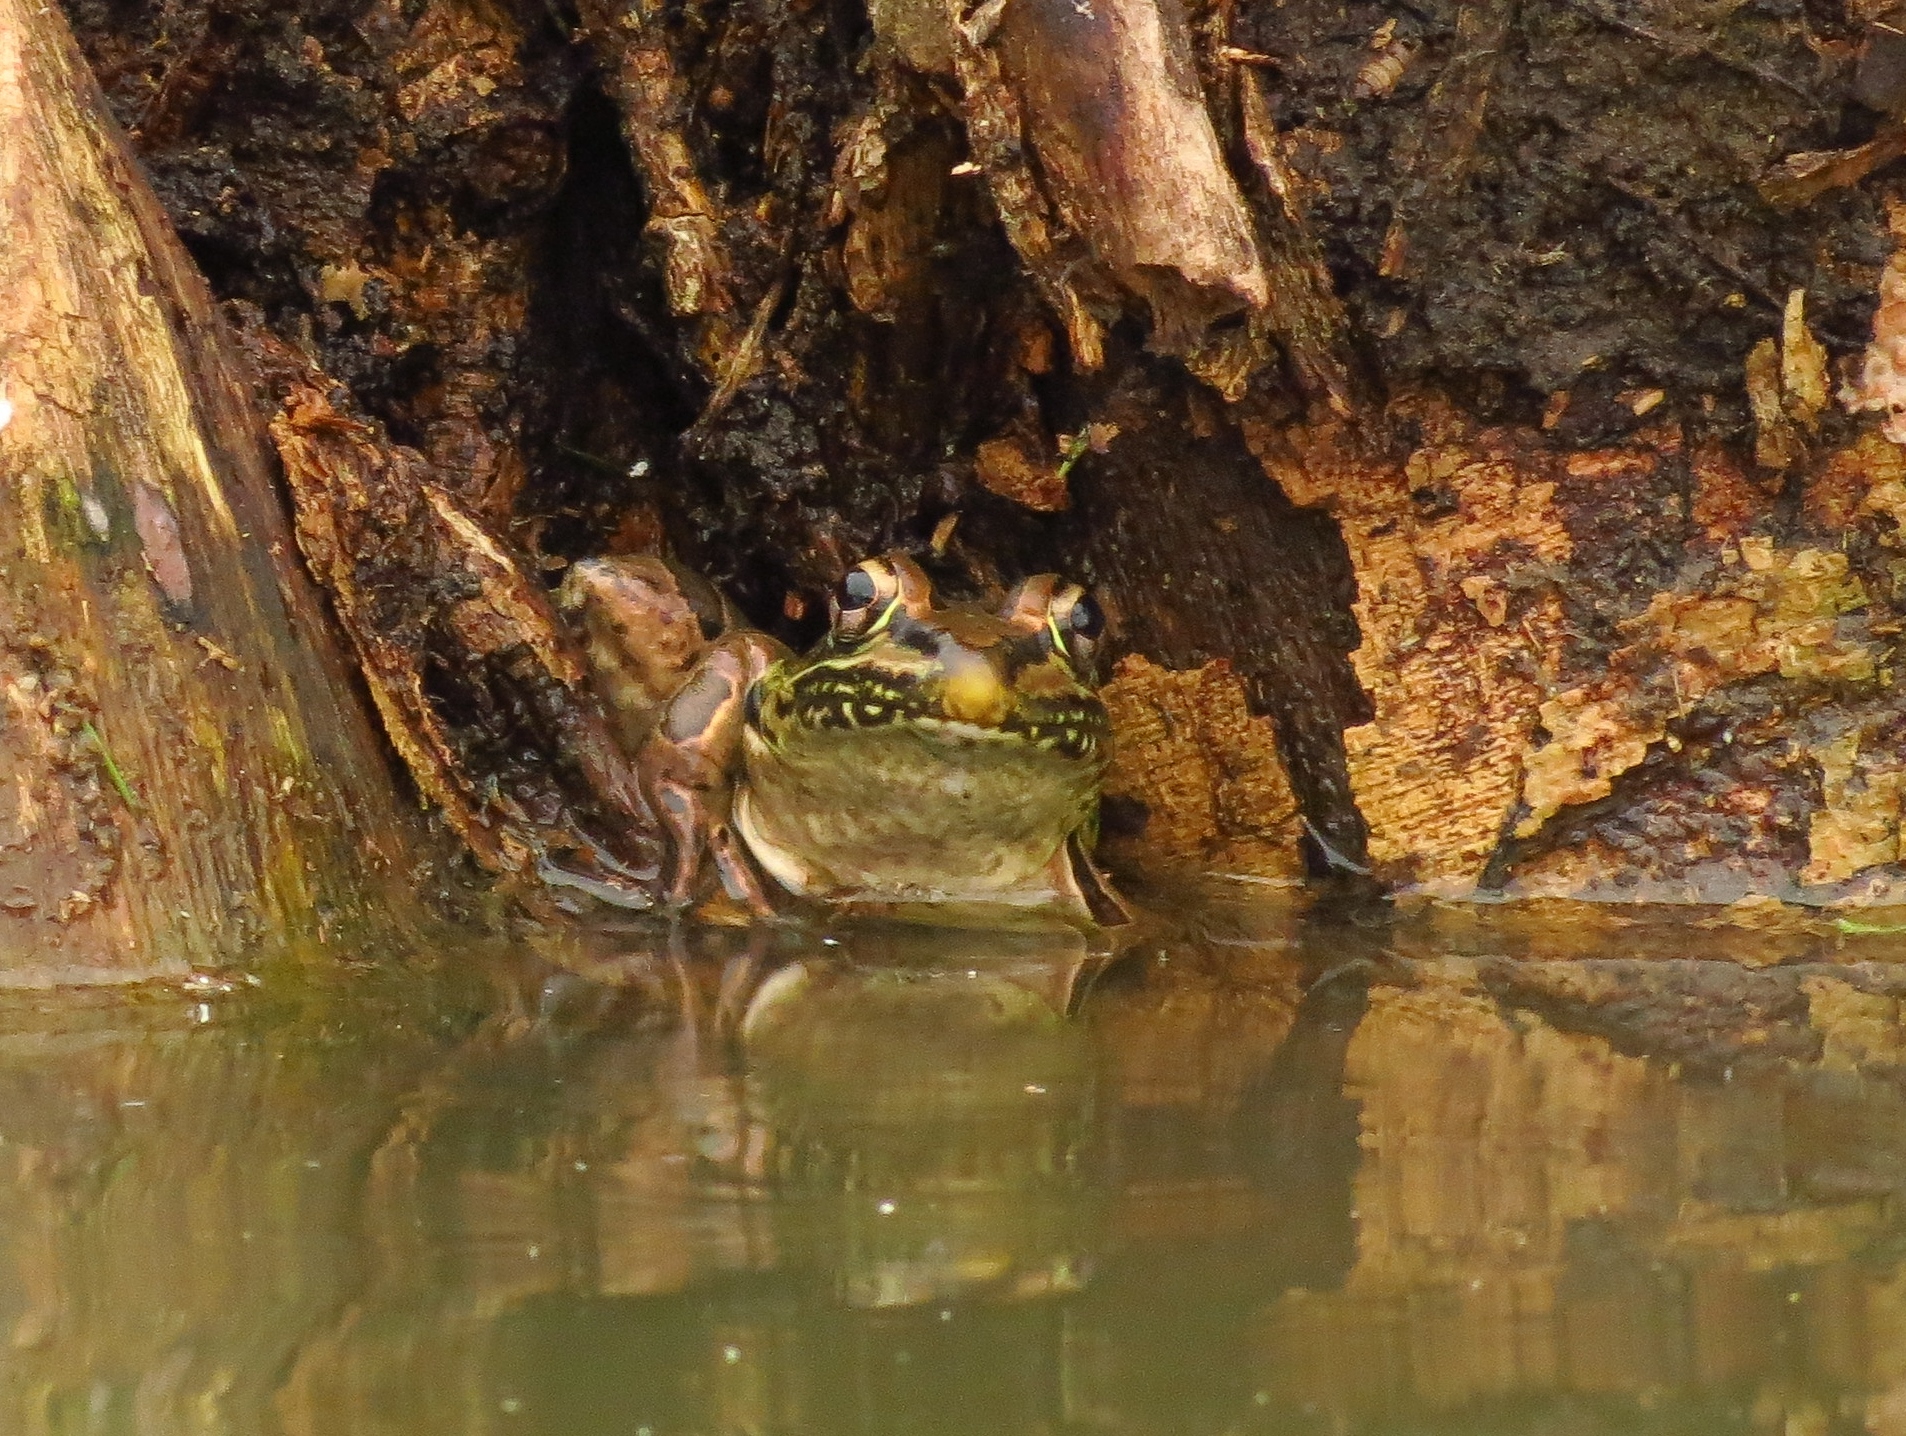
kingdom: Animalia
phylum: Chordata
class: Amphibia
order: Anura
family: Ranidae
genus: Lithobates
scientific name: Lithobates forreri
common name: Forrer's grass frog
